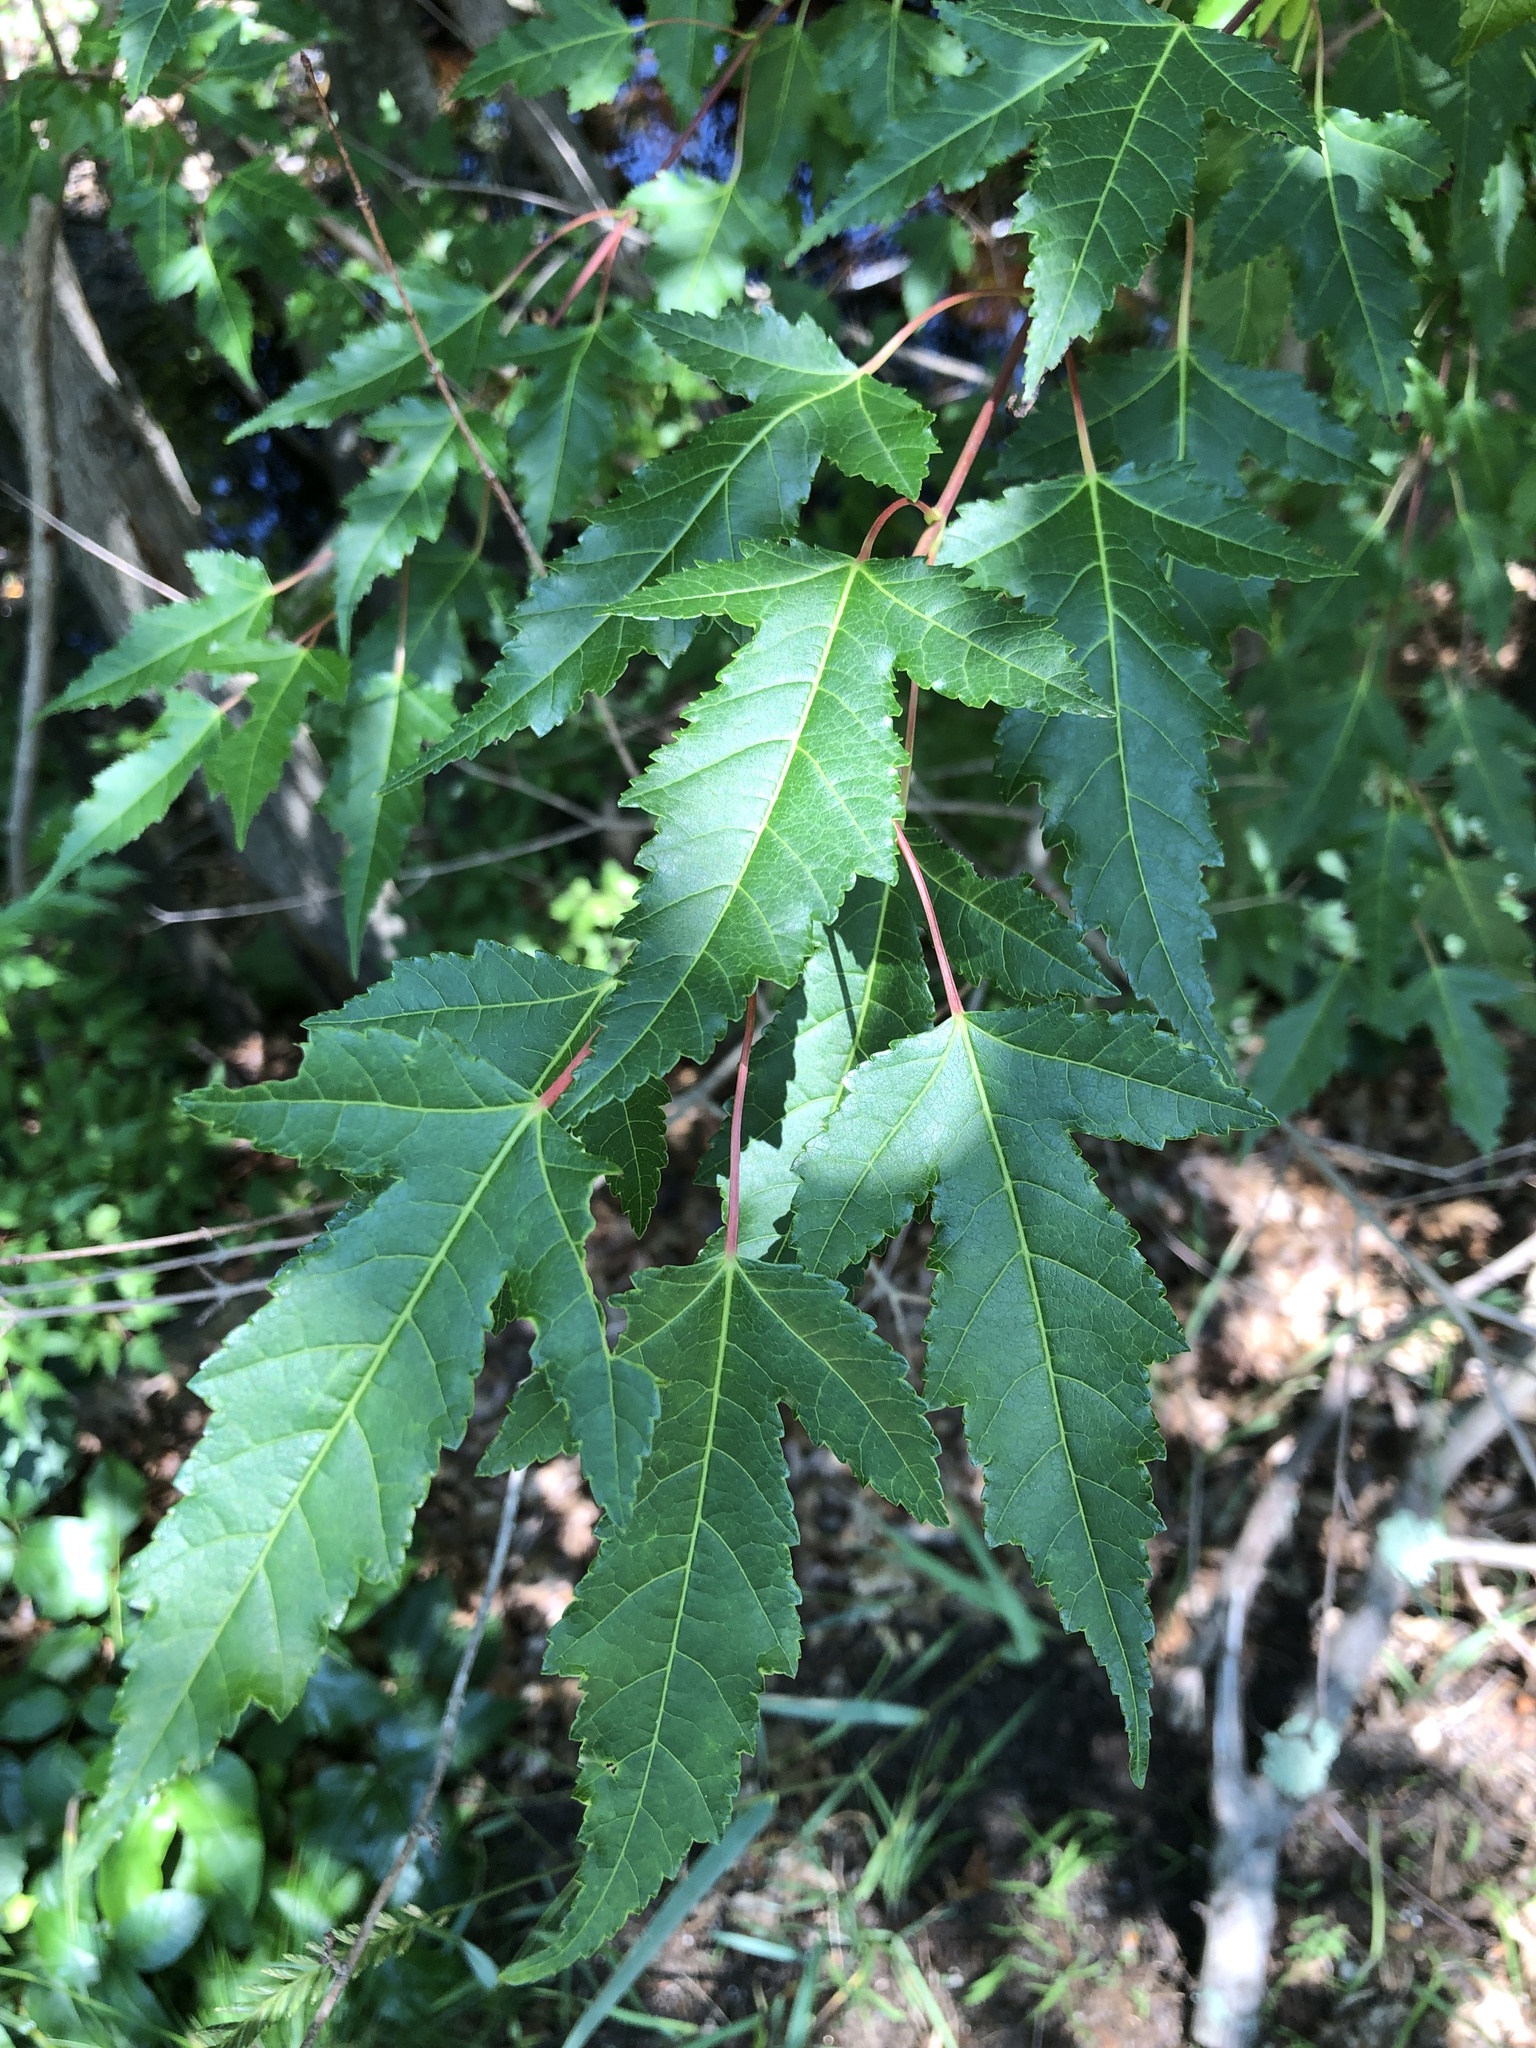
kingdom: Plantae
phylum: Tracheophyta
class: Magnoliopsida
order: Sapindales
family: Sapindaceae
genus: Acer
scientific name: Acer tataricum
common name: Tartar maple
